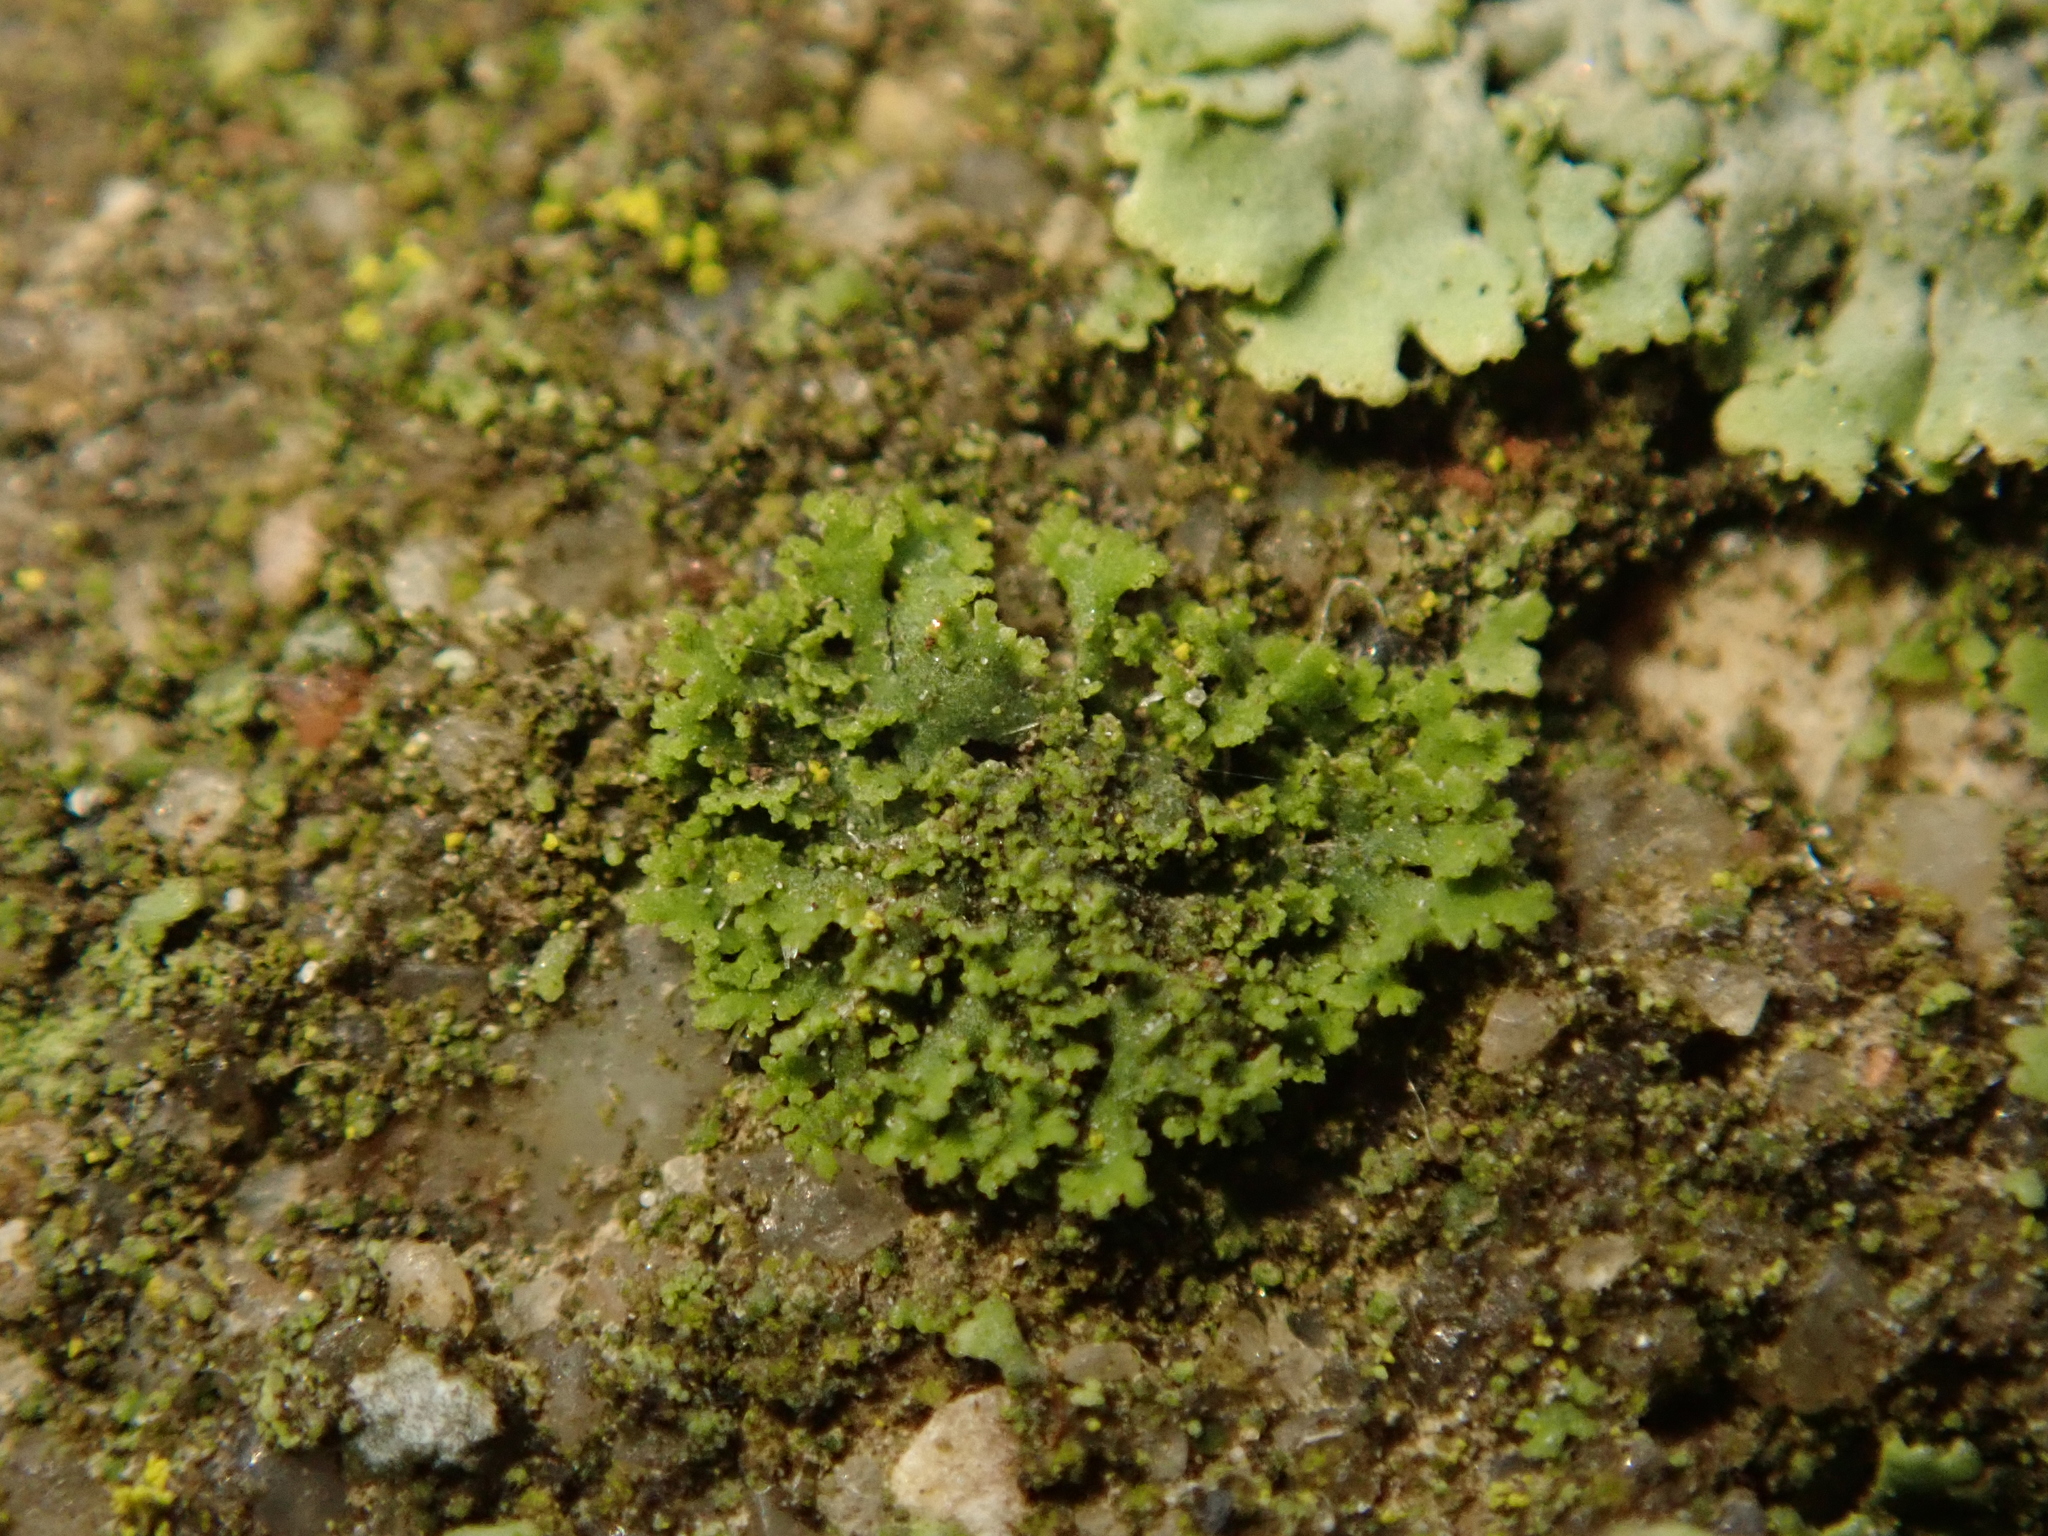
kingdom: Fungi
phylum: Ascomycota
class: Lecanoromycetes
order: Caliciales
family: Physciaceae
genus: Physciella
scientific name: Physciella nigricans
